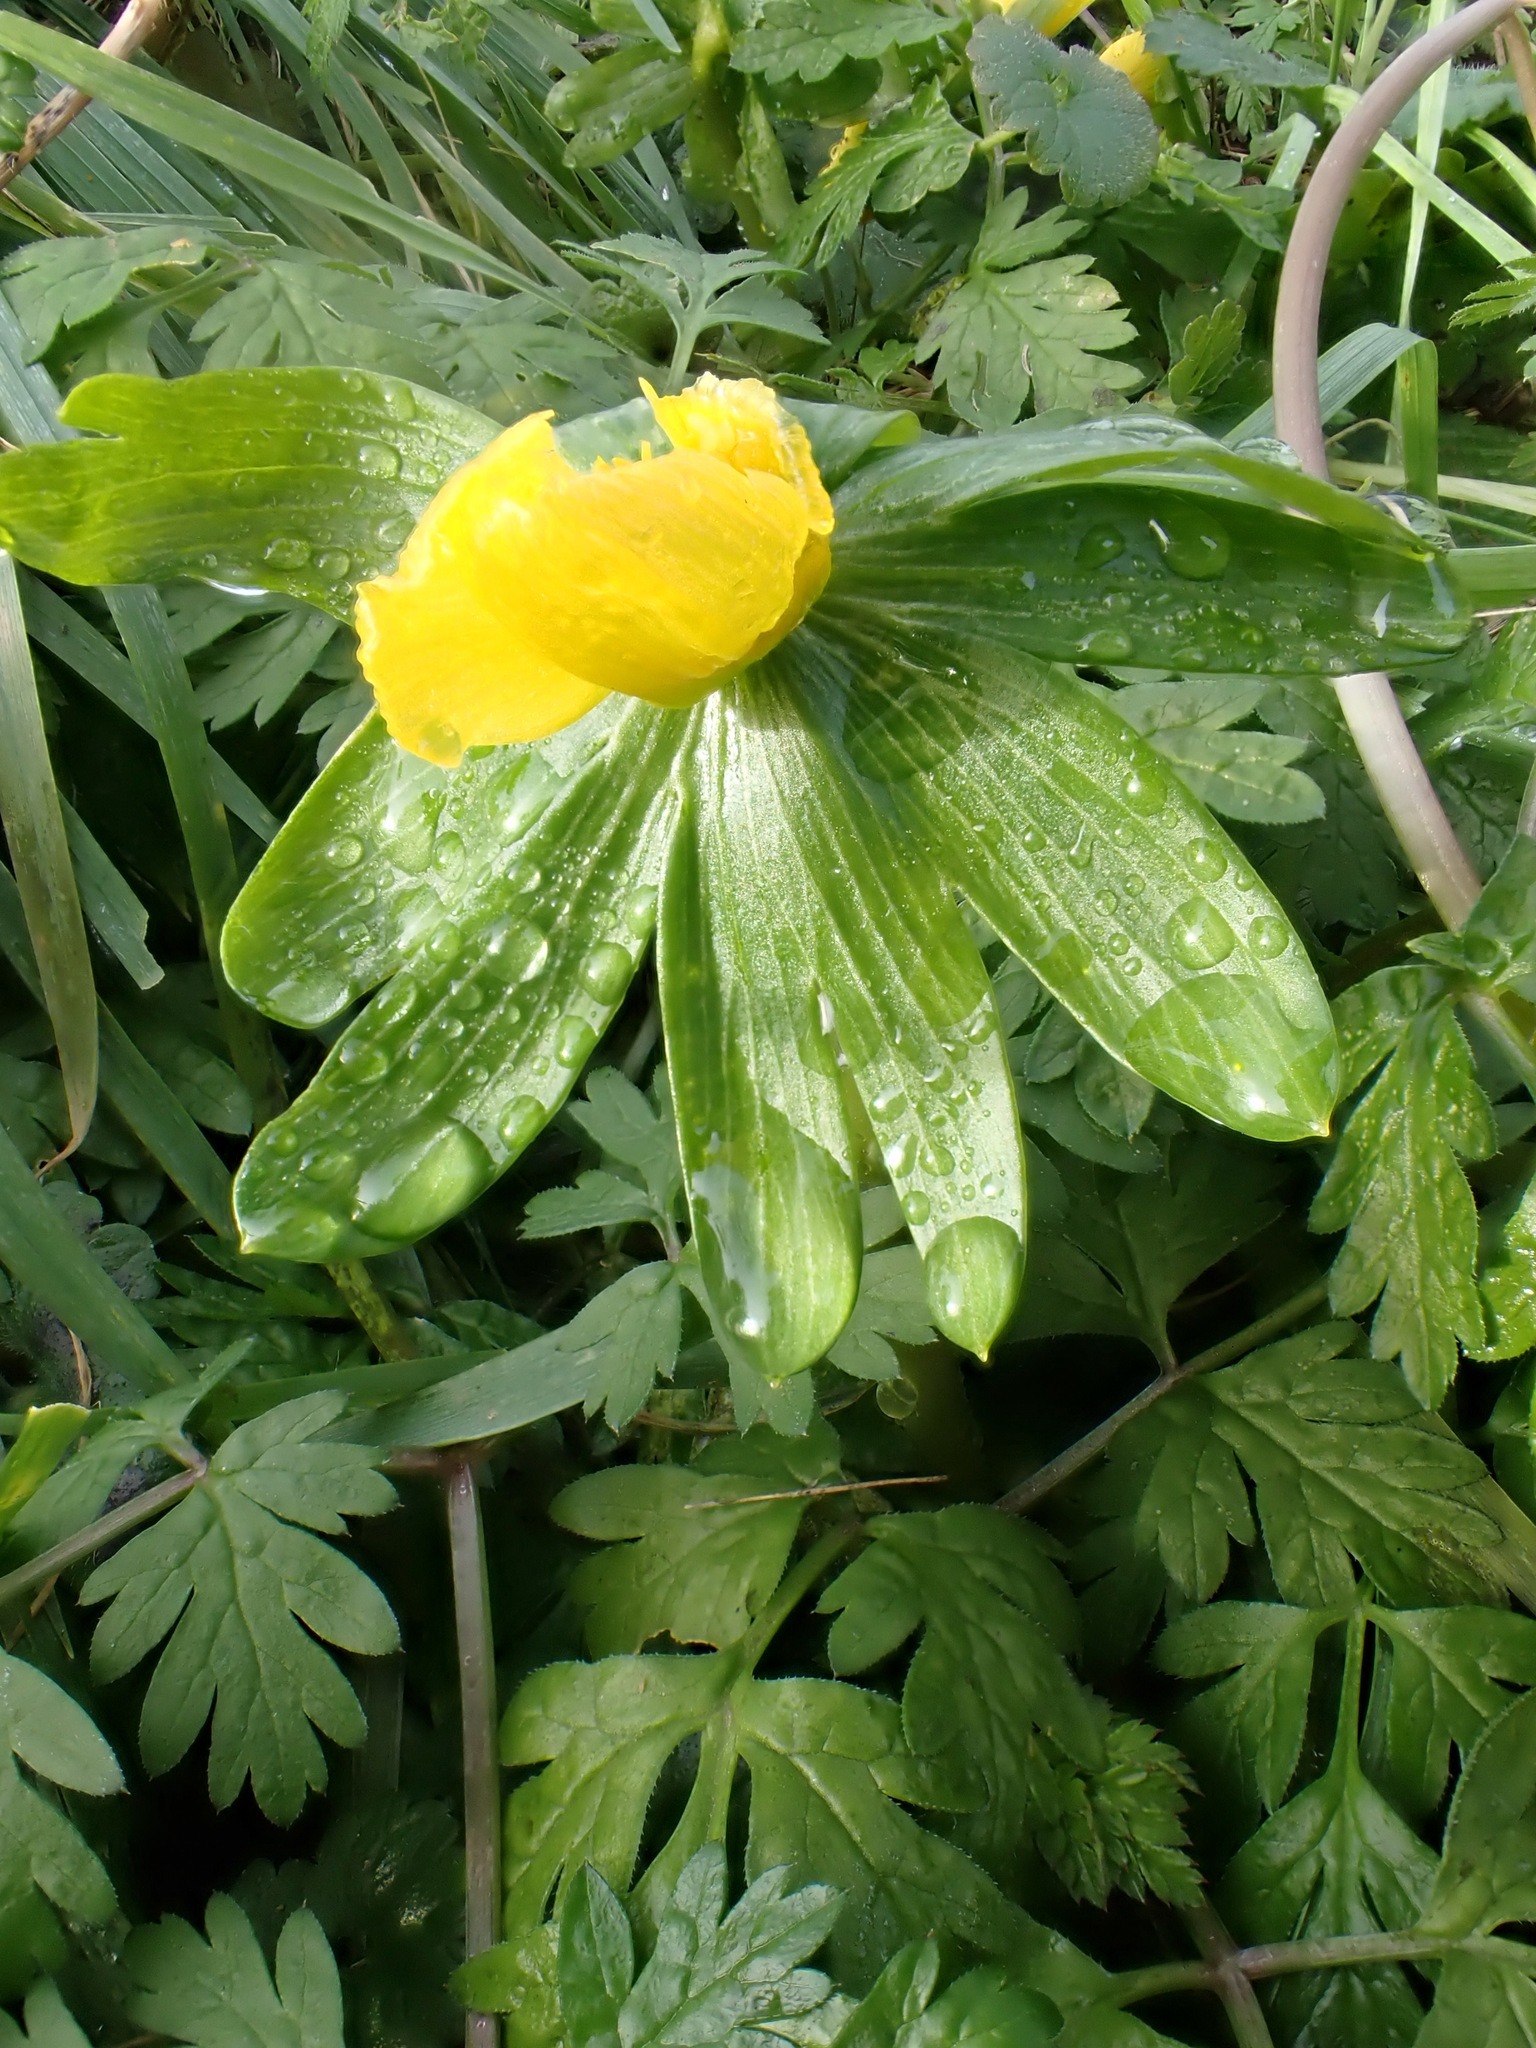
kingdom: Plantae
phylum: Tracheophyta
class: Magnoliopsida
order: Ranunculales
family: Ranunculaceae
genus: Eranthis
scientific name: Eranthis hyemalis
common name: Winter aconite
